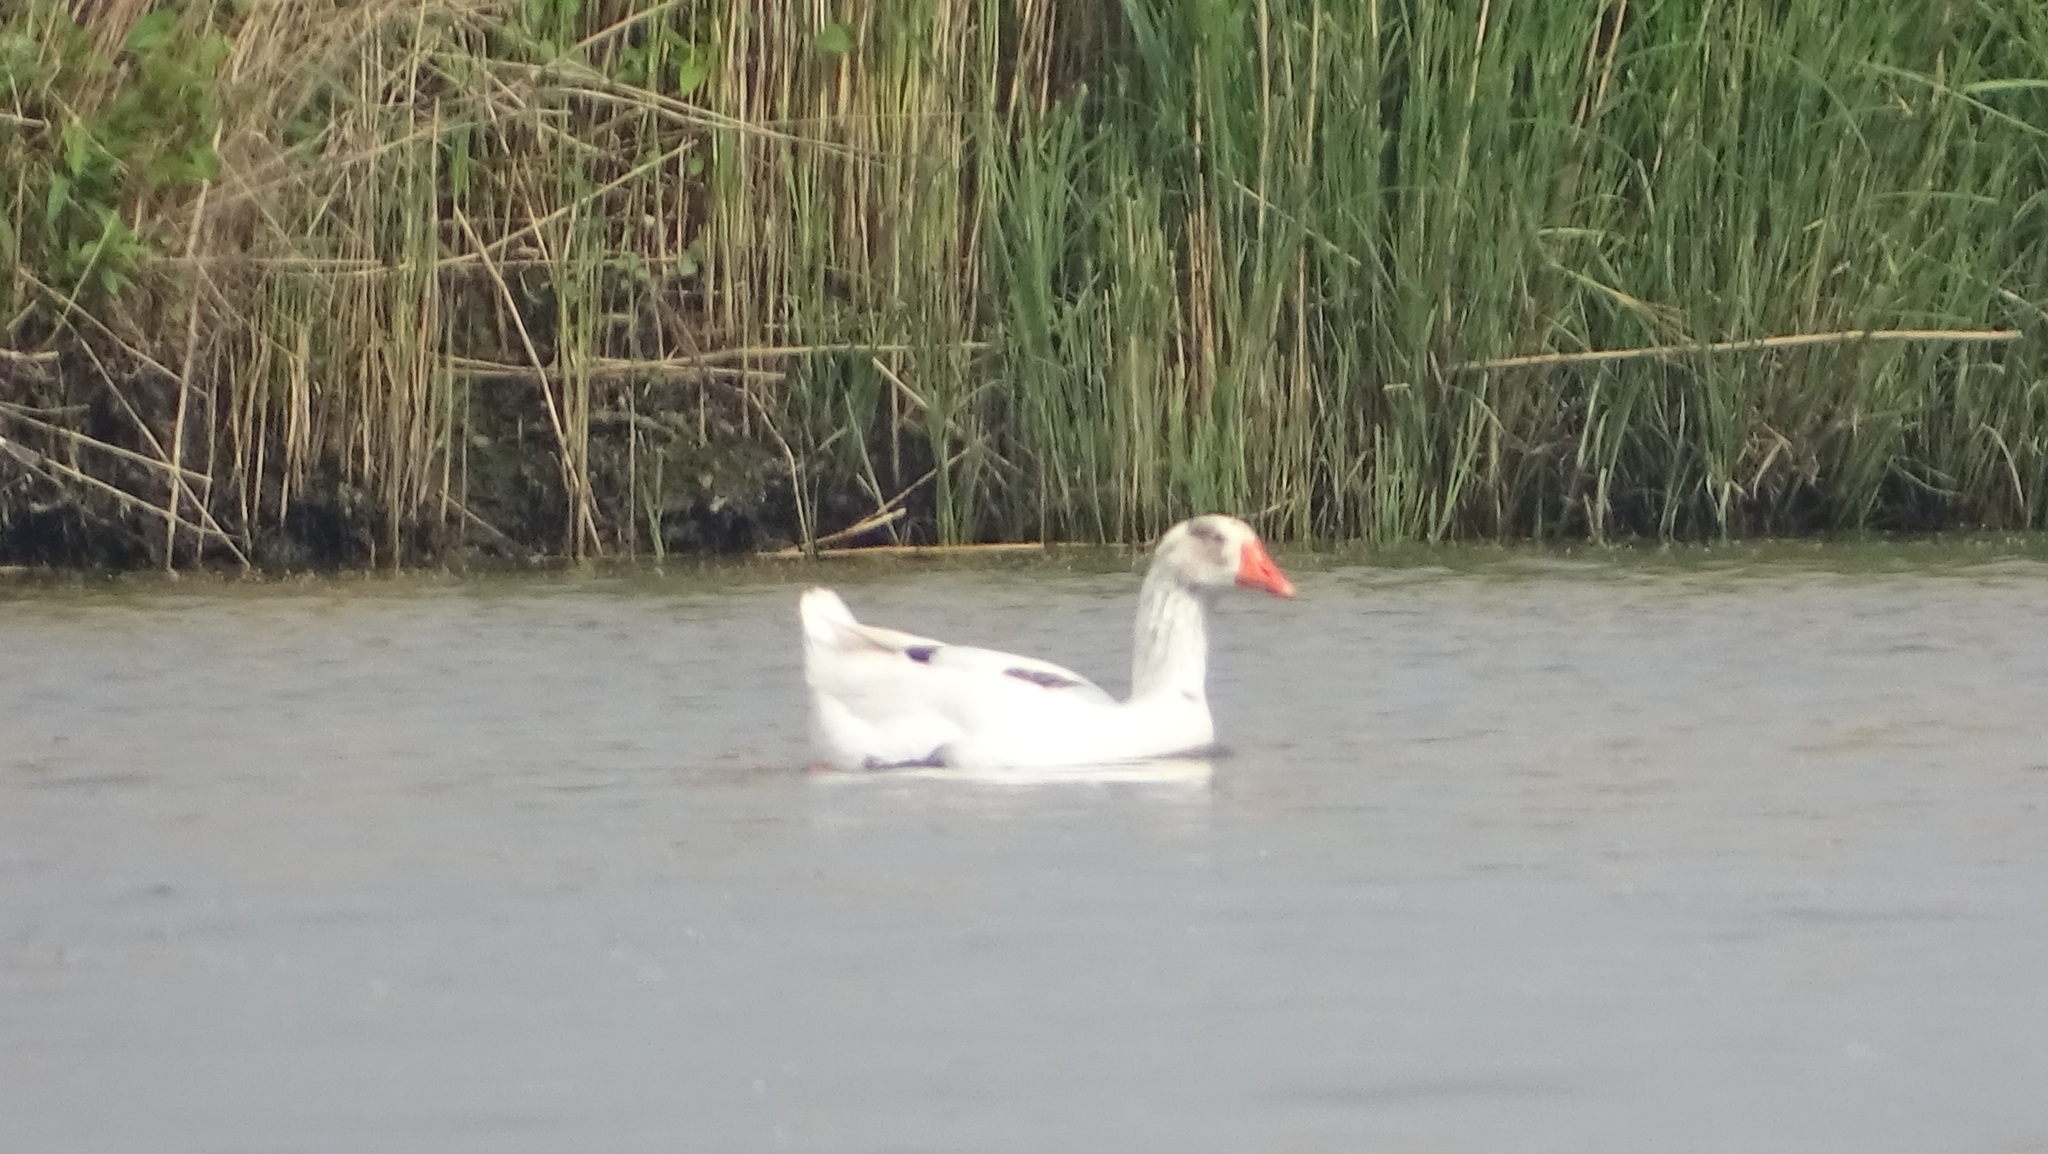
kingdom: Animalia
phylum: Chordata
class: Aves
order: Anseriformes
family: Anatidae
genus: Anser
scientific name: Anser anser
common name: Greylag goose
